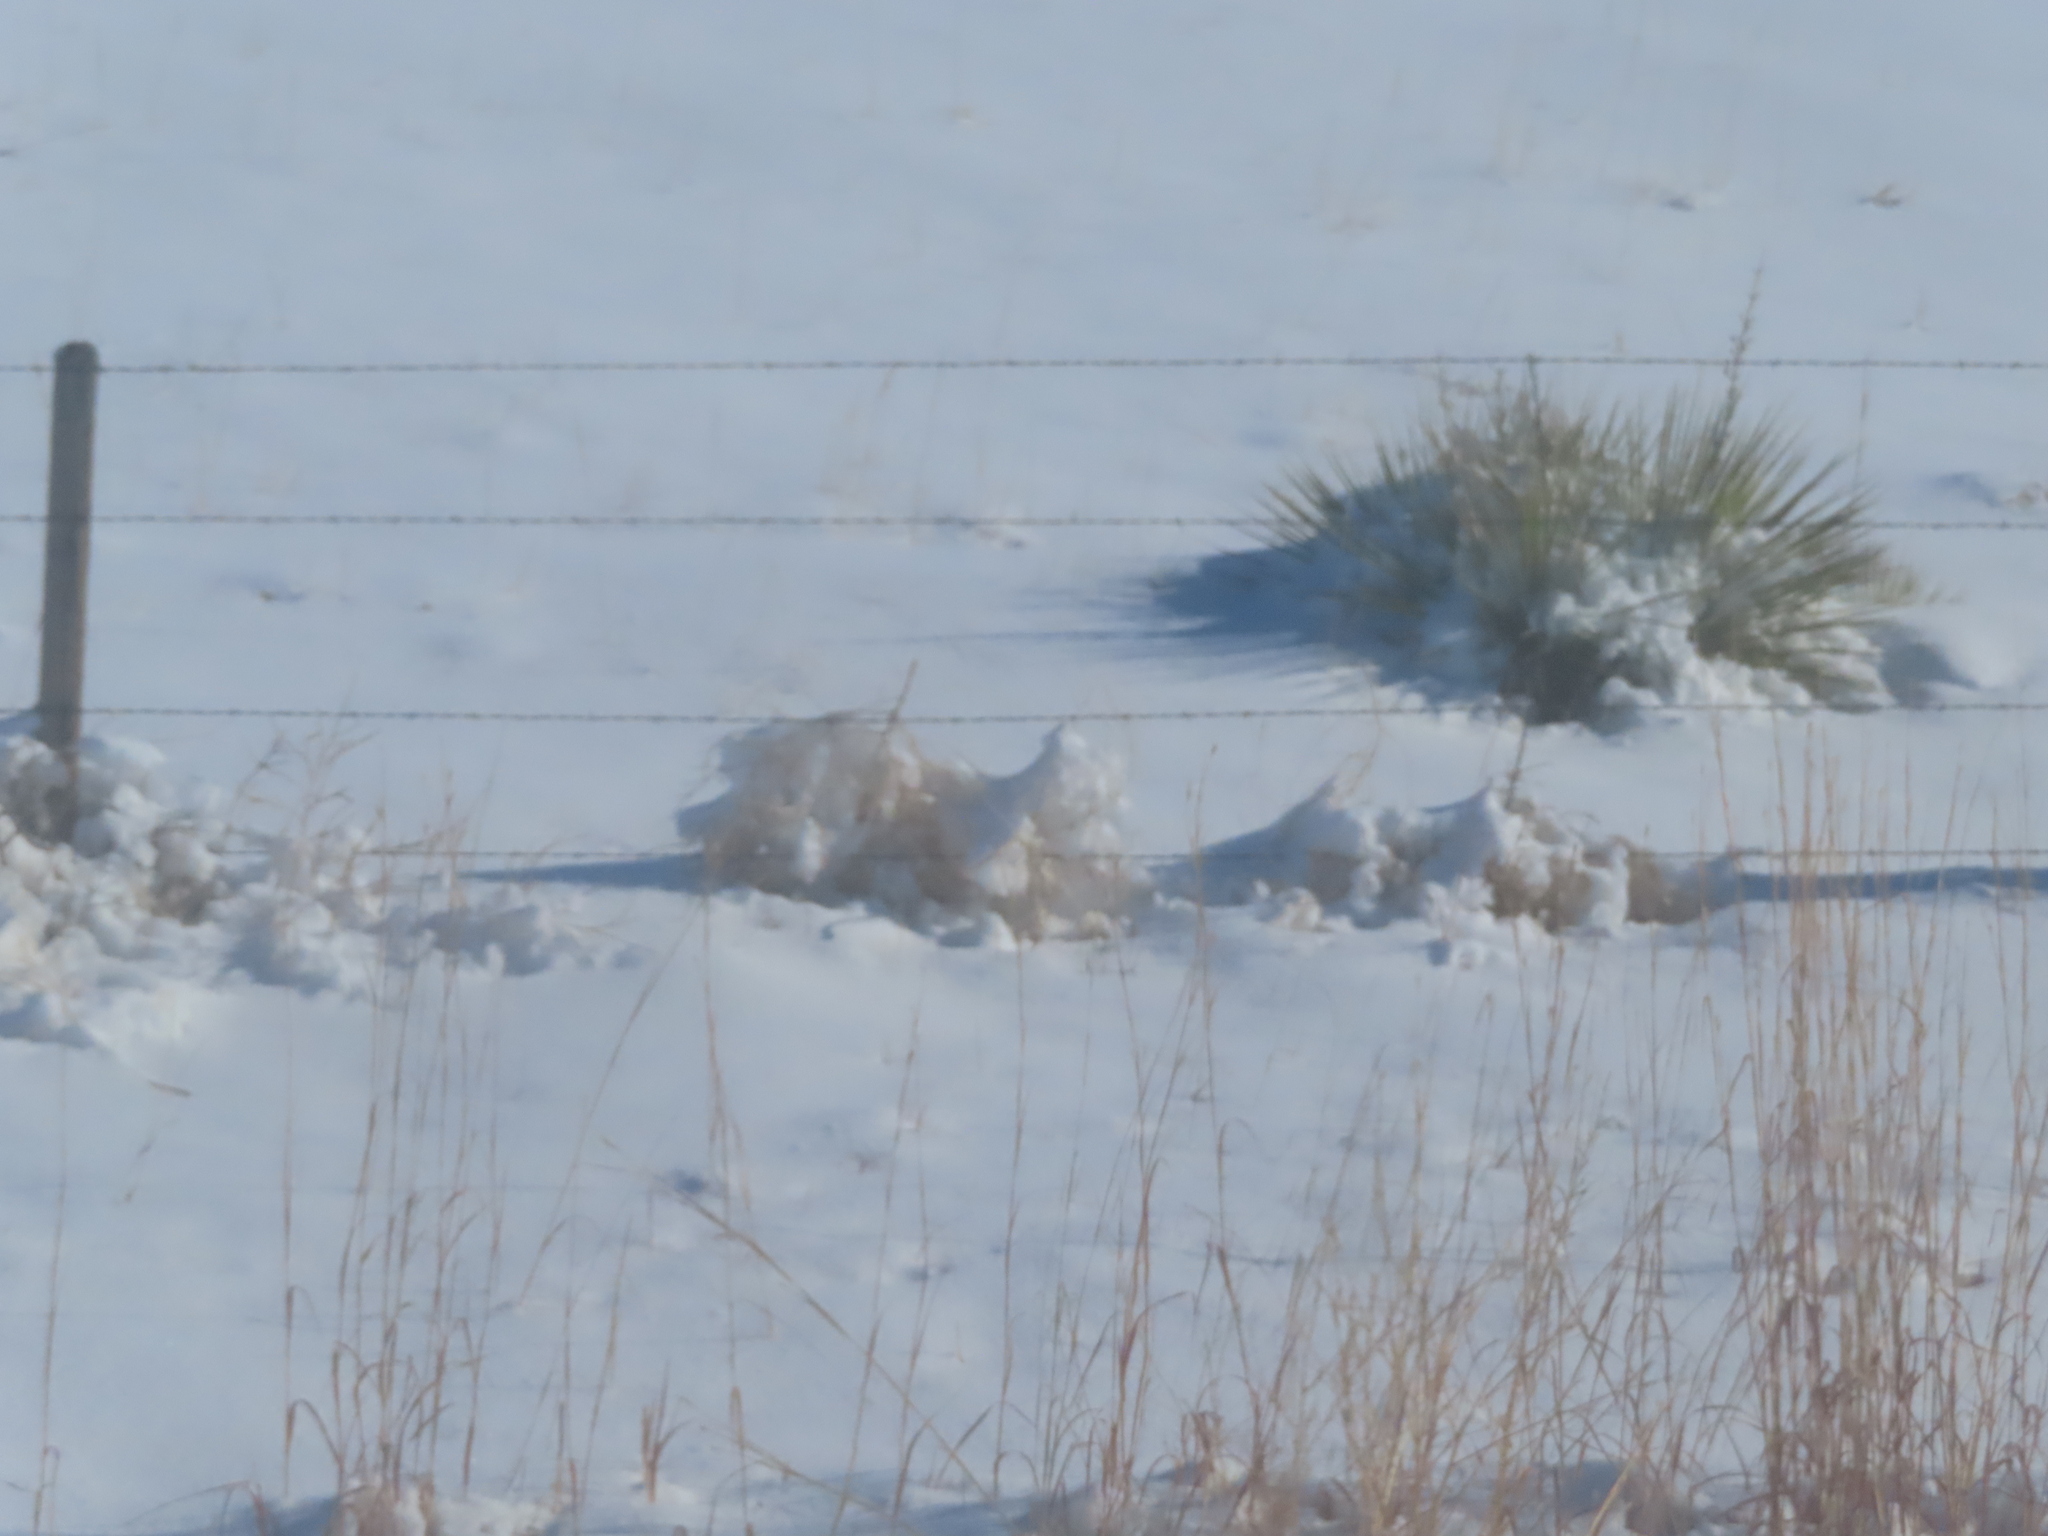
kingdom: Plantae
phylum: Tracheophyta
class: Liliopsida
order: Asparagales
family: Asparagaceae
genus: Yucca
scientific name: Yucca glauca
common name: Great plains yucca
